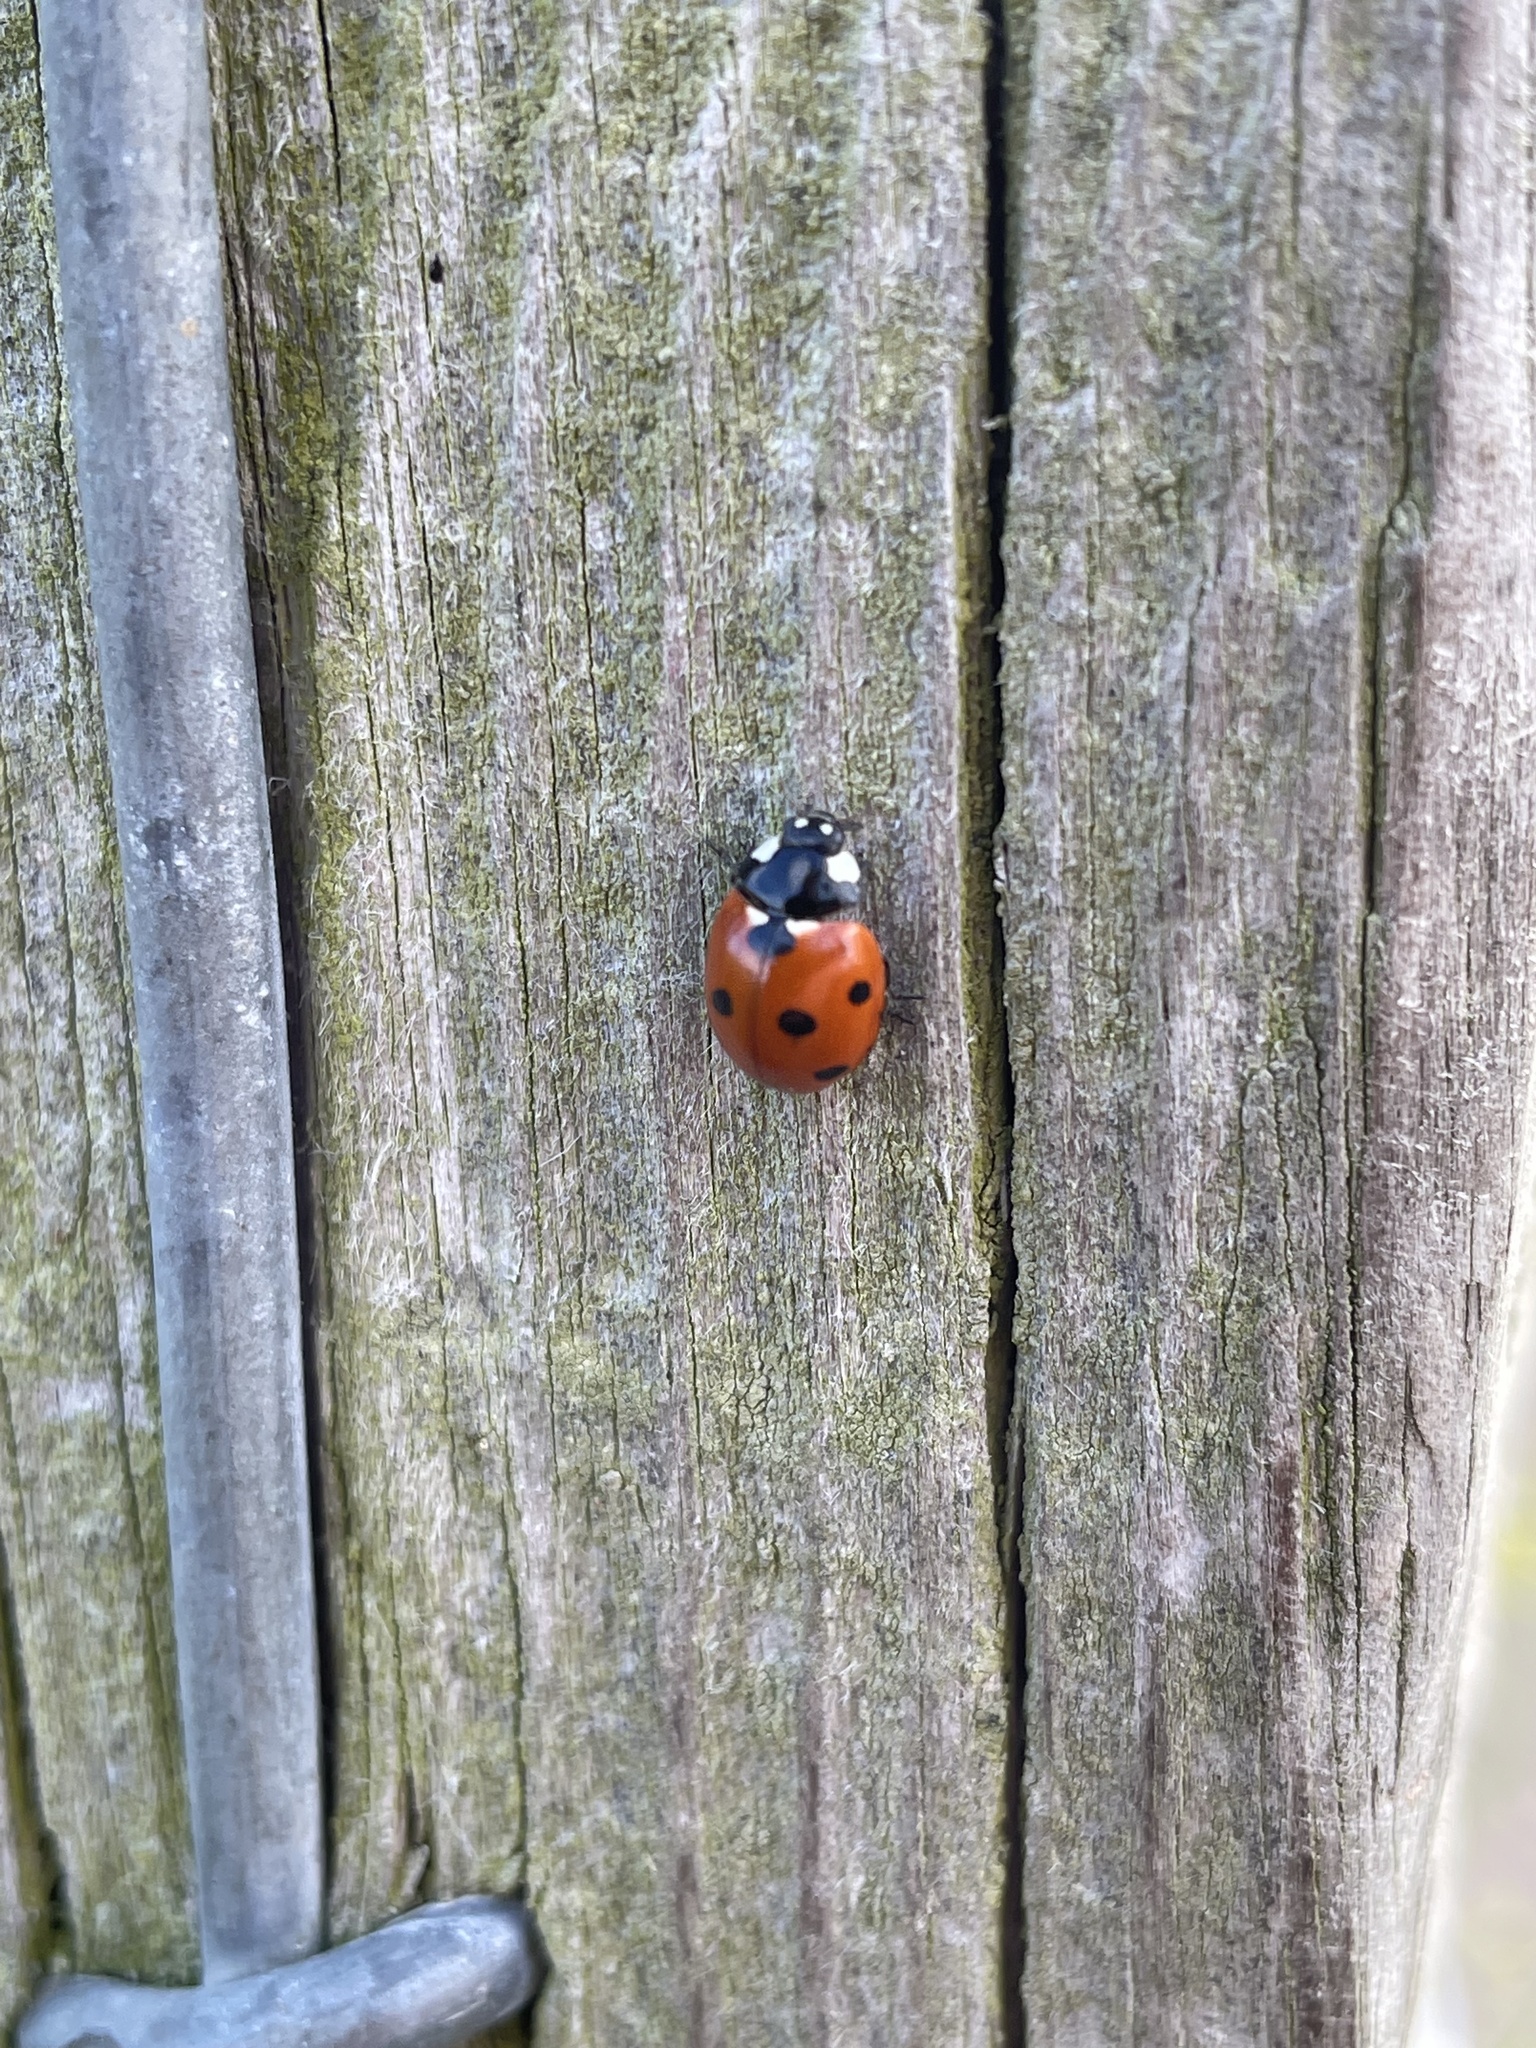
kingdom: Animalia
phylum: Arthropoda
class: Insecta
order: Coleoptera
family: Coccinellidae
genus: Coccinella
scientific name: Coccinella septempunctata
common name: Sevenspotted lady beetle
